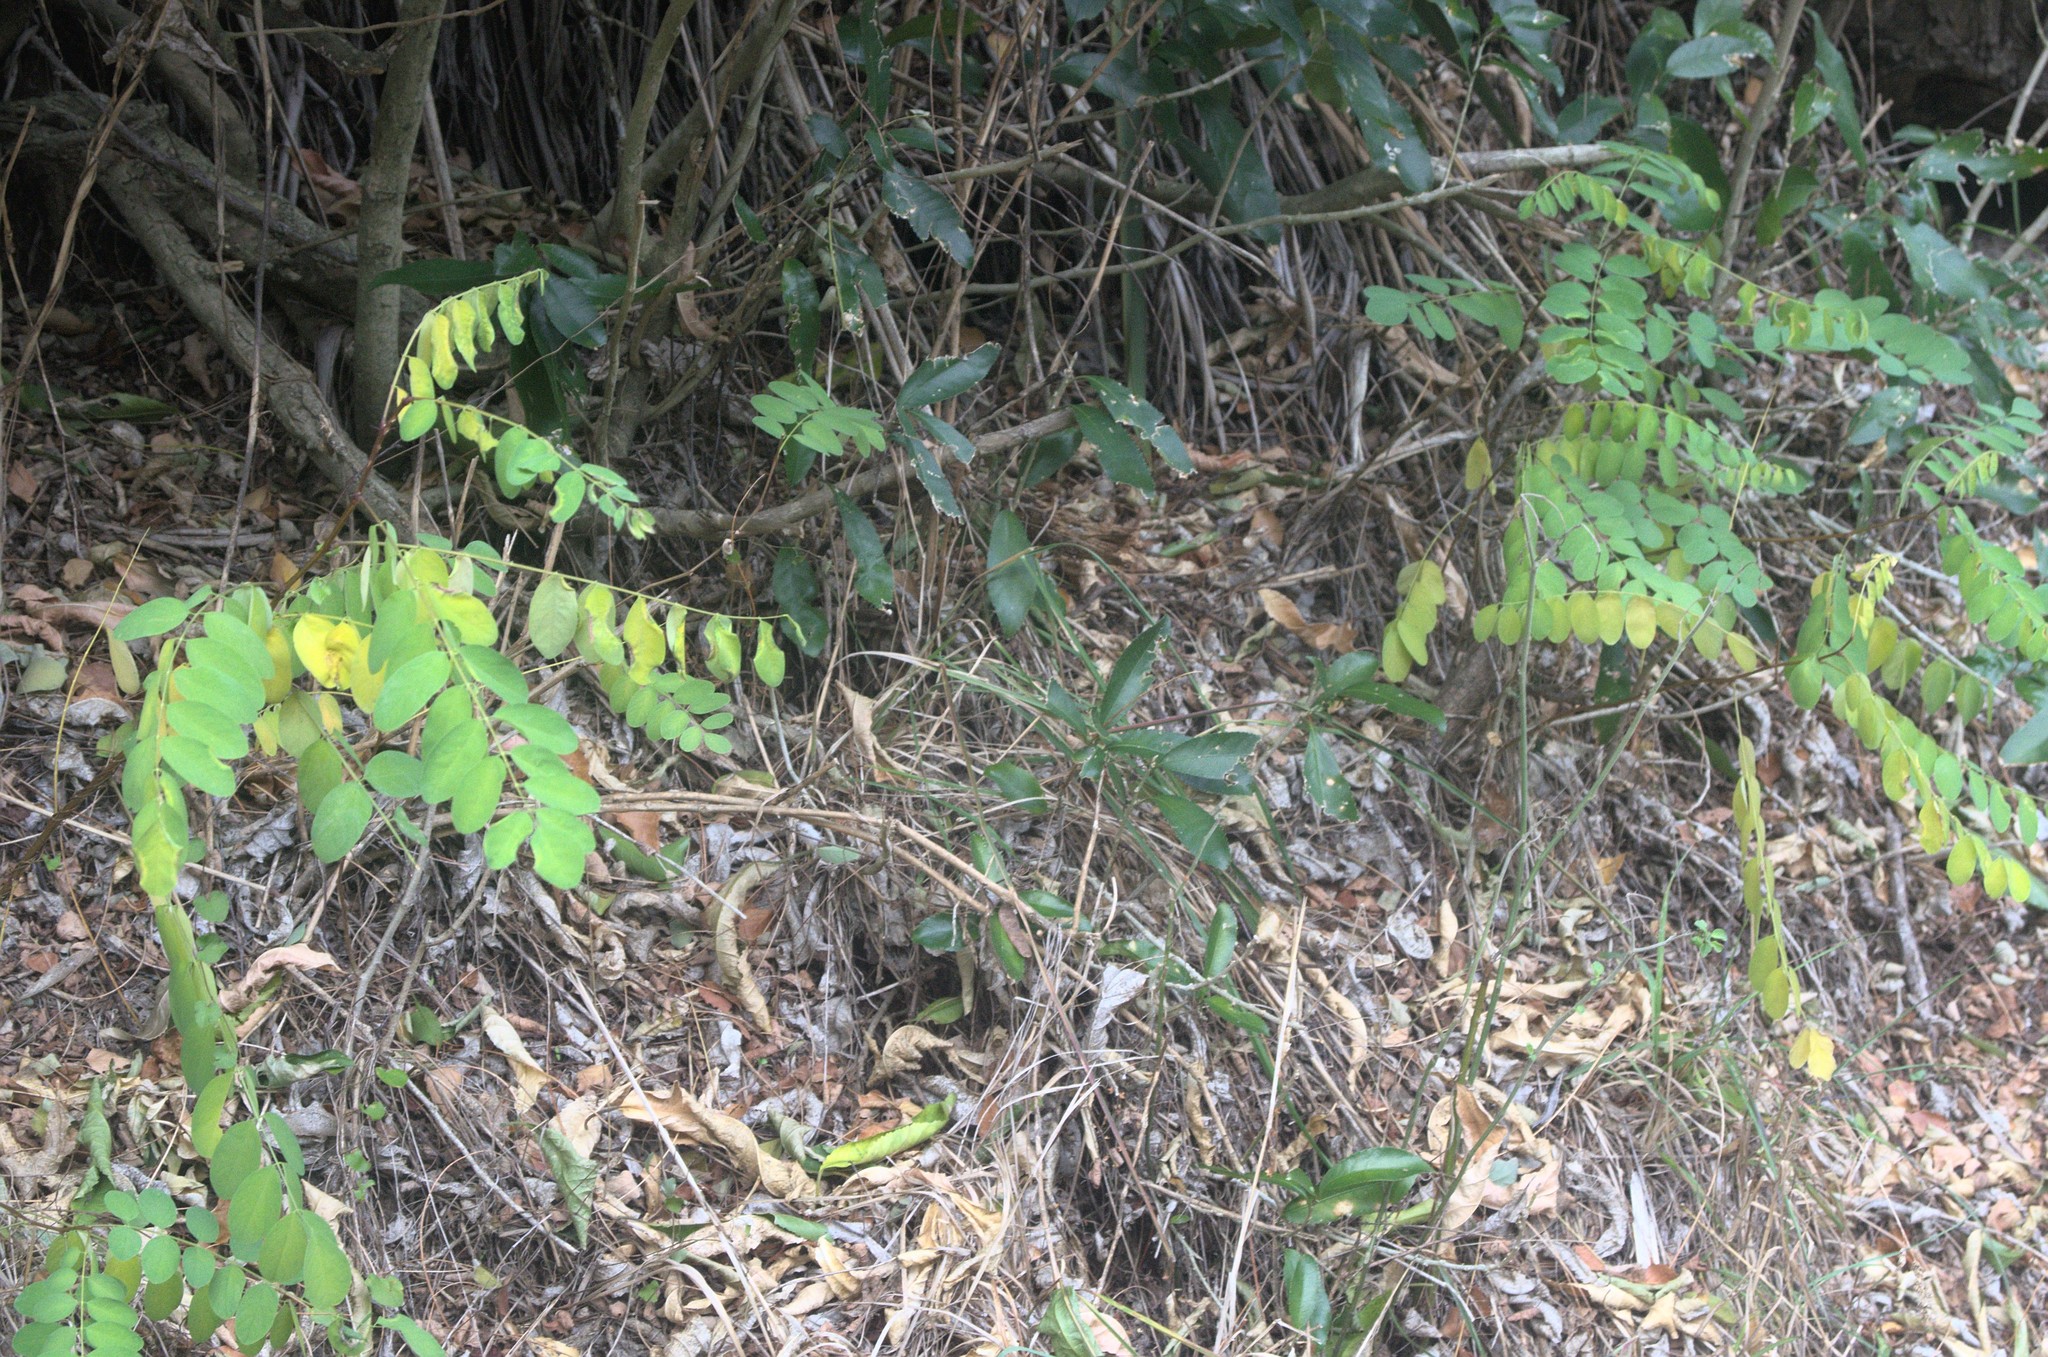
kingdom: Plantae
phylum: Tracheophyta
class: Magnoliopsida
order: Fabales
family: Fabaceae
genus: Robinia
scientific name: Robinia pseudoacacia
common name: Black locust
